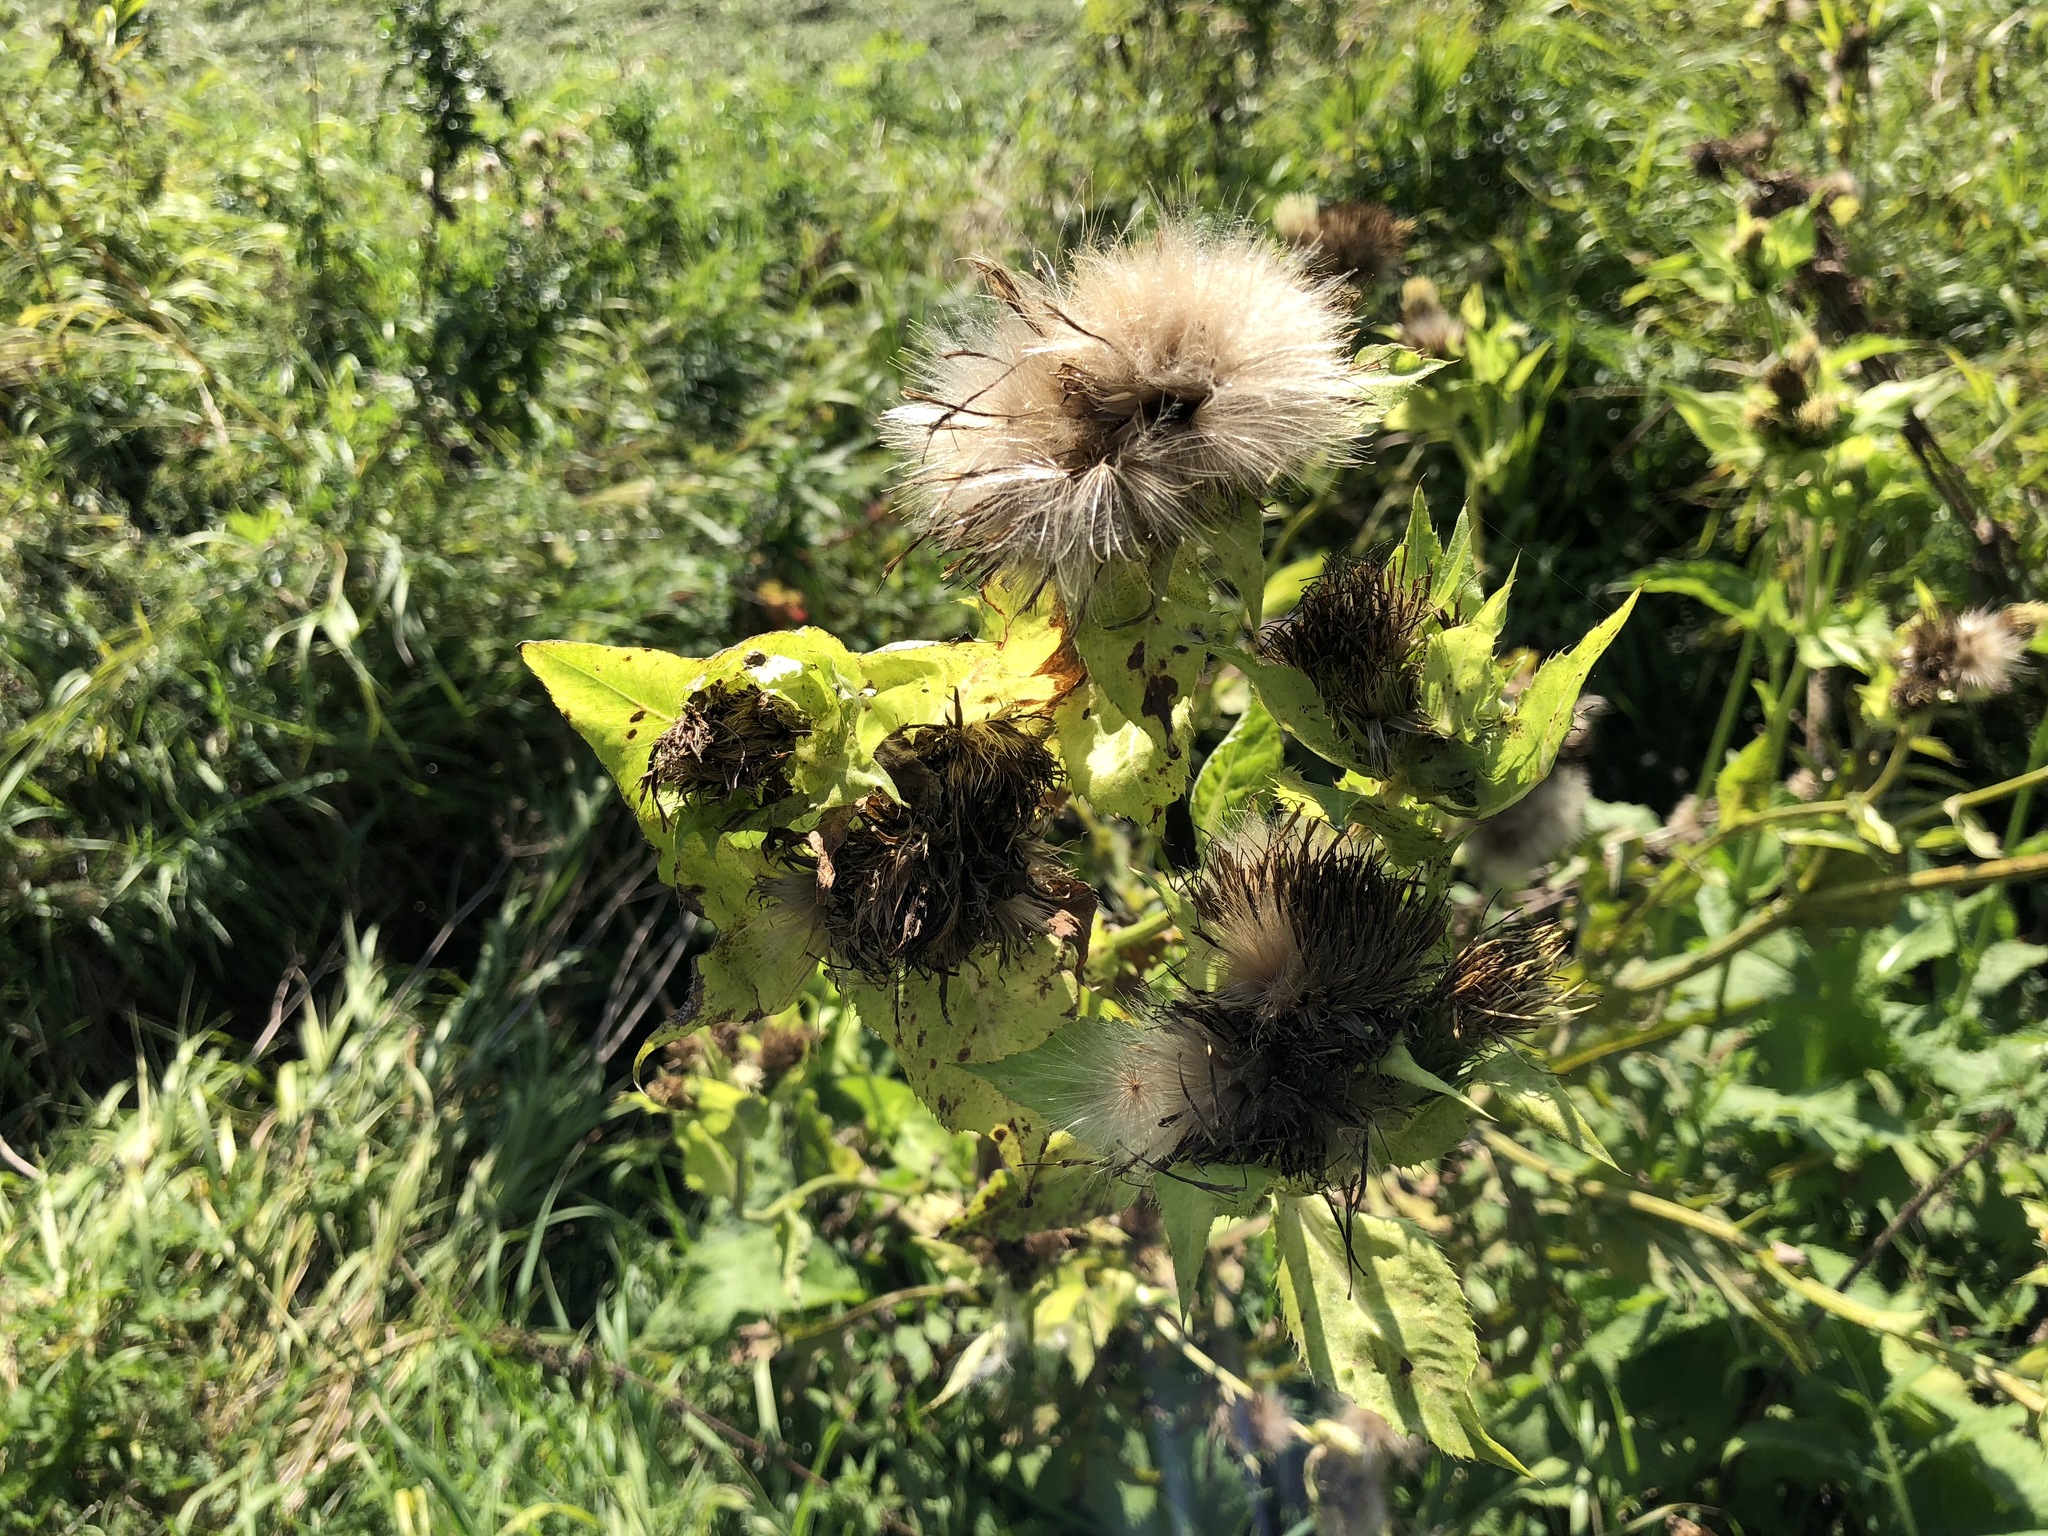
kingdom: Plantae
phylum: Tracheophyta
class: Magnoliopsida
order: Asterales
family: Asteraceae
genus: Cirsium
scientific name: Cirsium oleraceum
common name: Cabbage thistle
